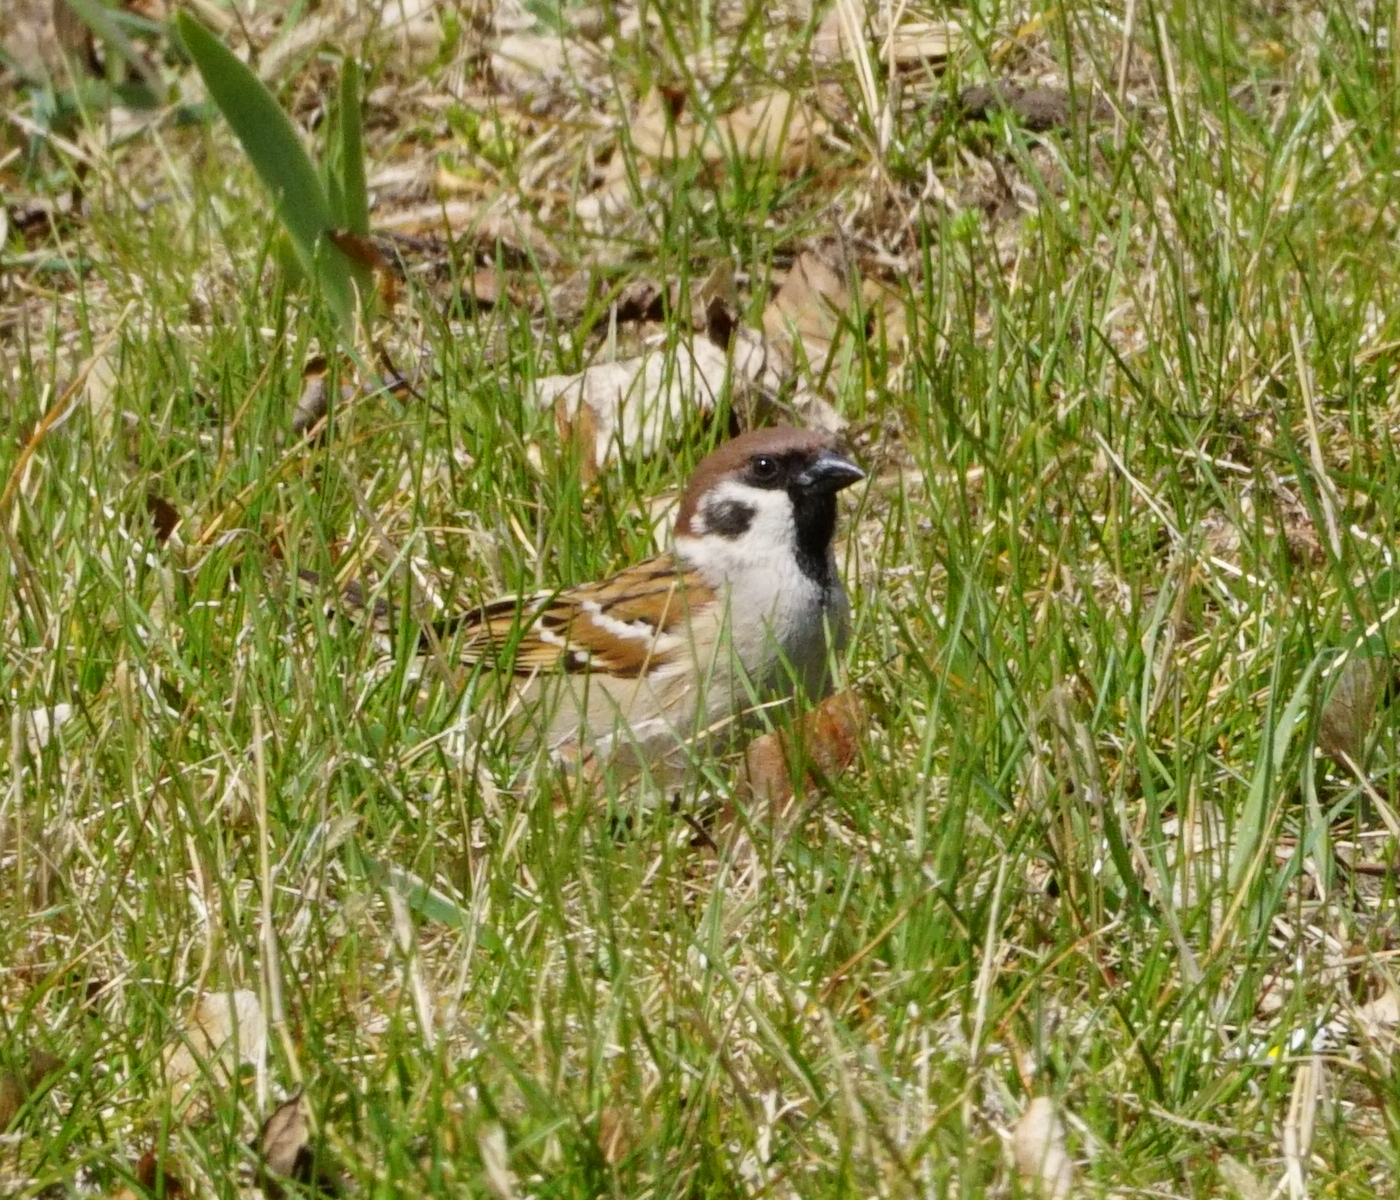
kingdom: Animalia
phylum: Chordata
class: Aves
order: Passeriformes
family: Passeridae
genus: Passer
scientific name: Passer montanus
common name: Eurasian tree sparrow
